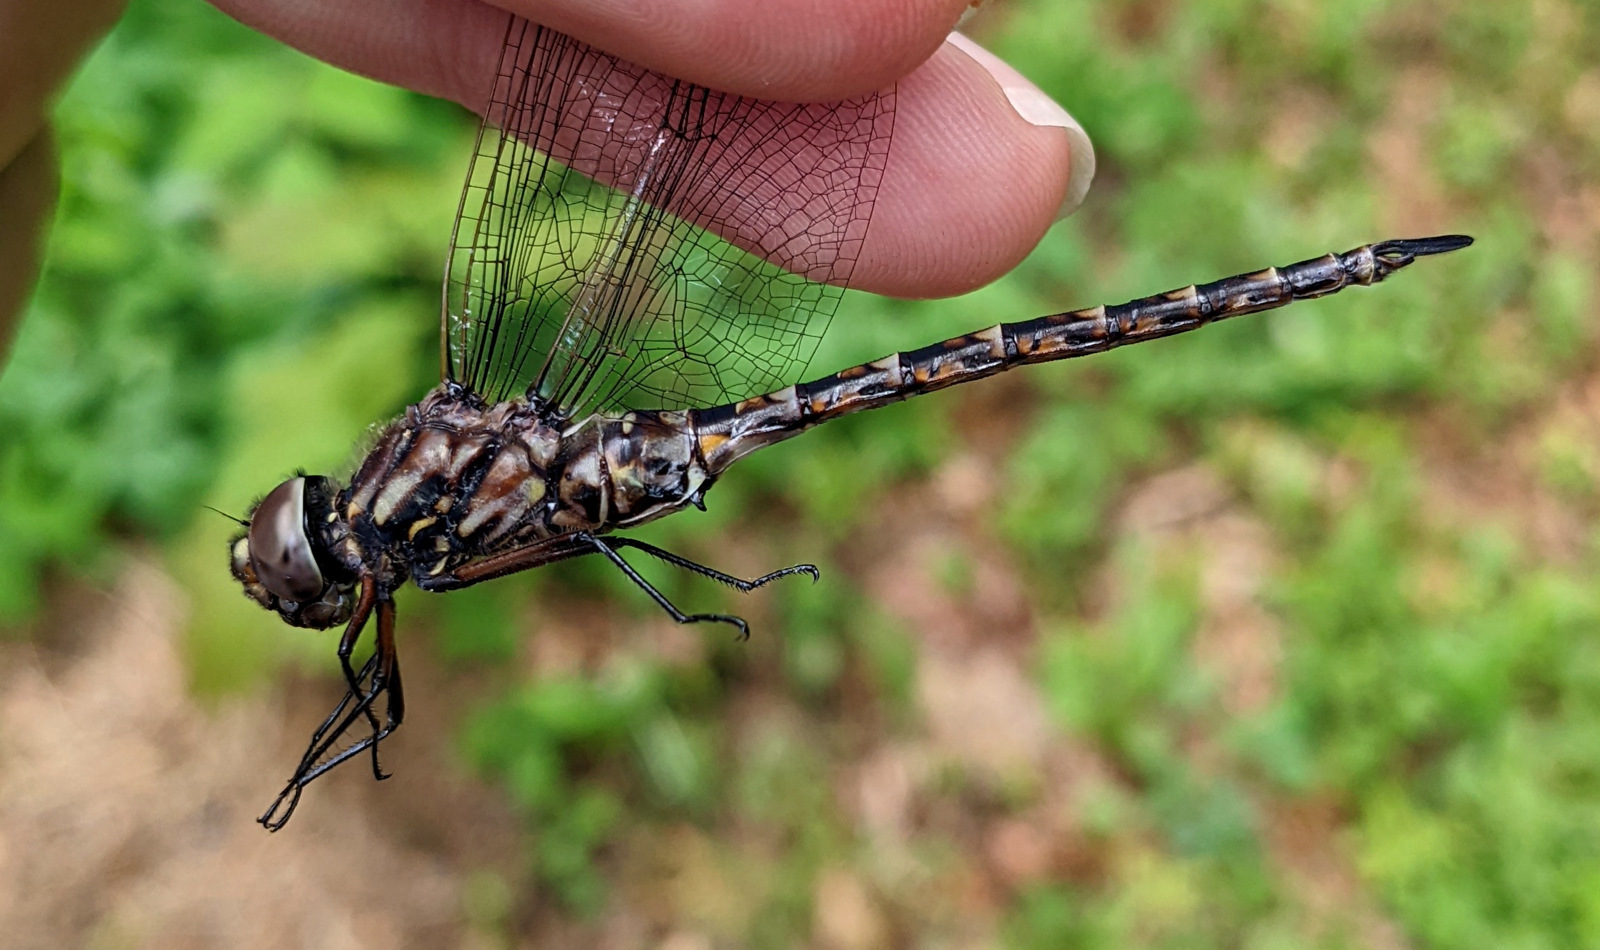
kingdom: Animalia
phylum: Arthropoda
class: Insecta
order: Odonata
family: Aeshnidae
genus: Gomphaeschna
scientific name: Gomphaeschna antilope
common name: Taper-tailed darner
